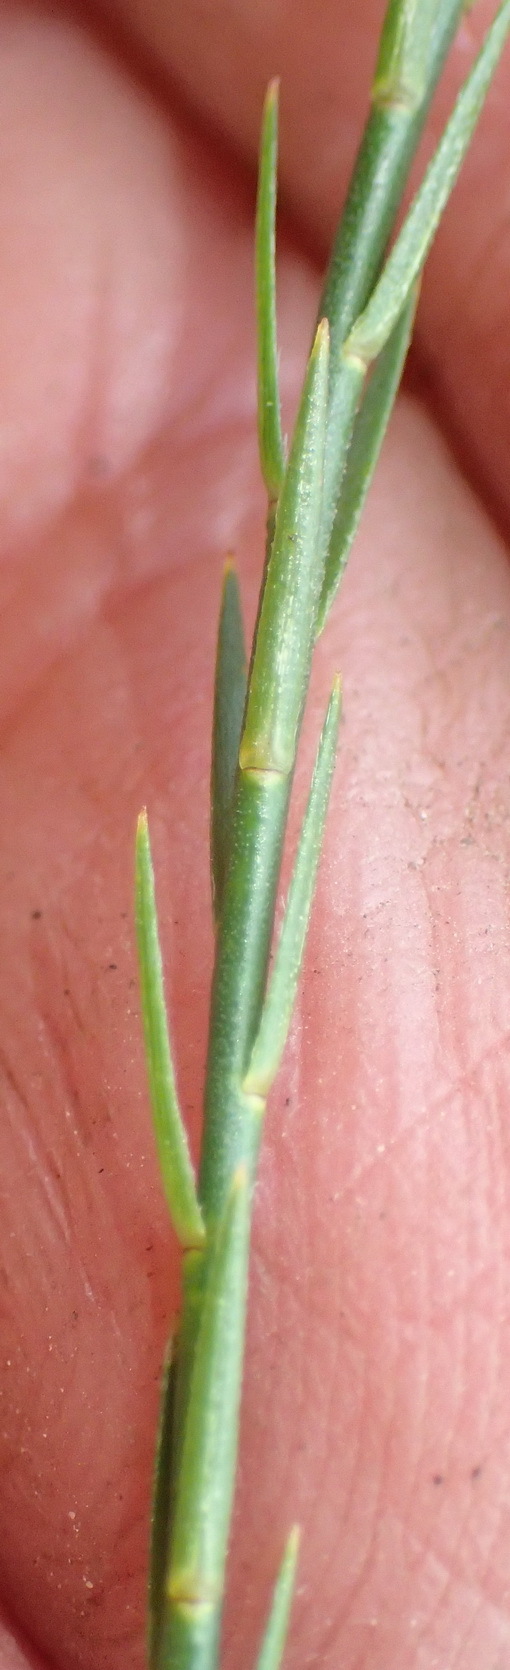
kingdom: Plantae
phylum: Tracheophyta
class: Magnoliopsida
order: Malvales
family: Thymelaeaceae
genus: Gnidia
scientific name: Gnidia laxa
